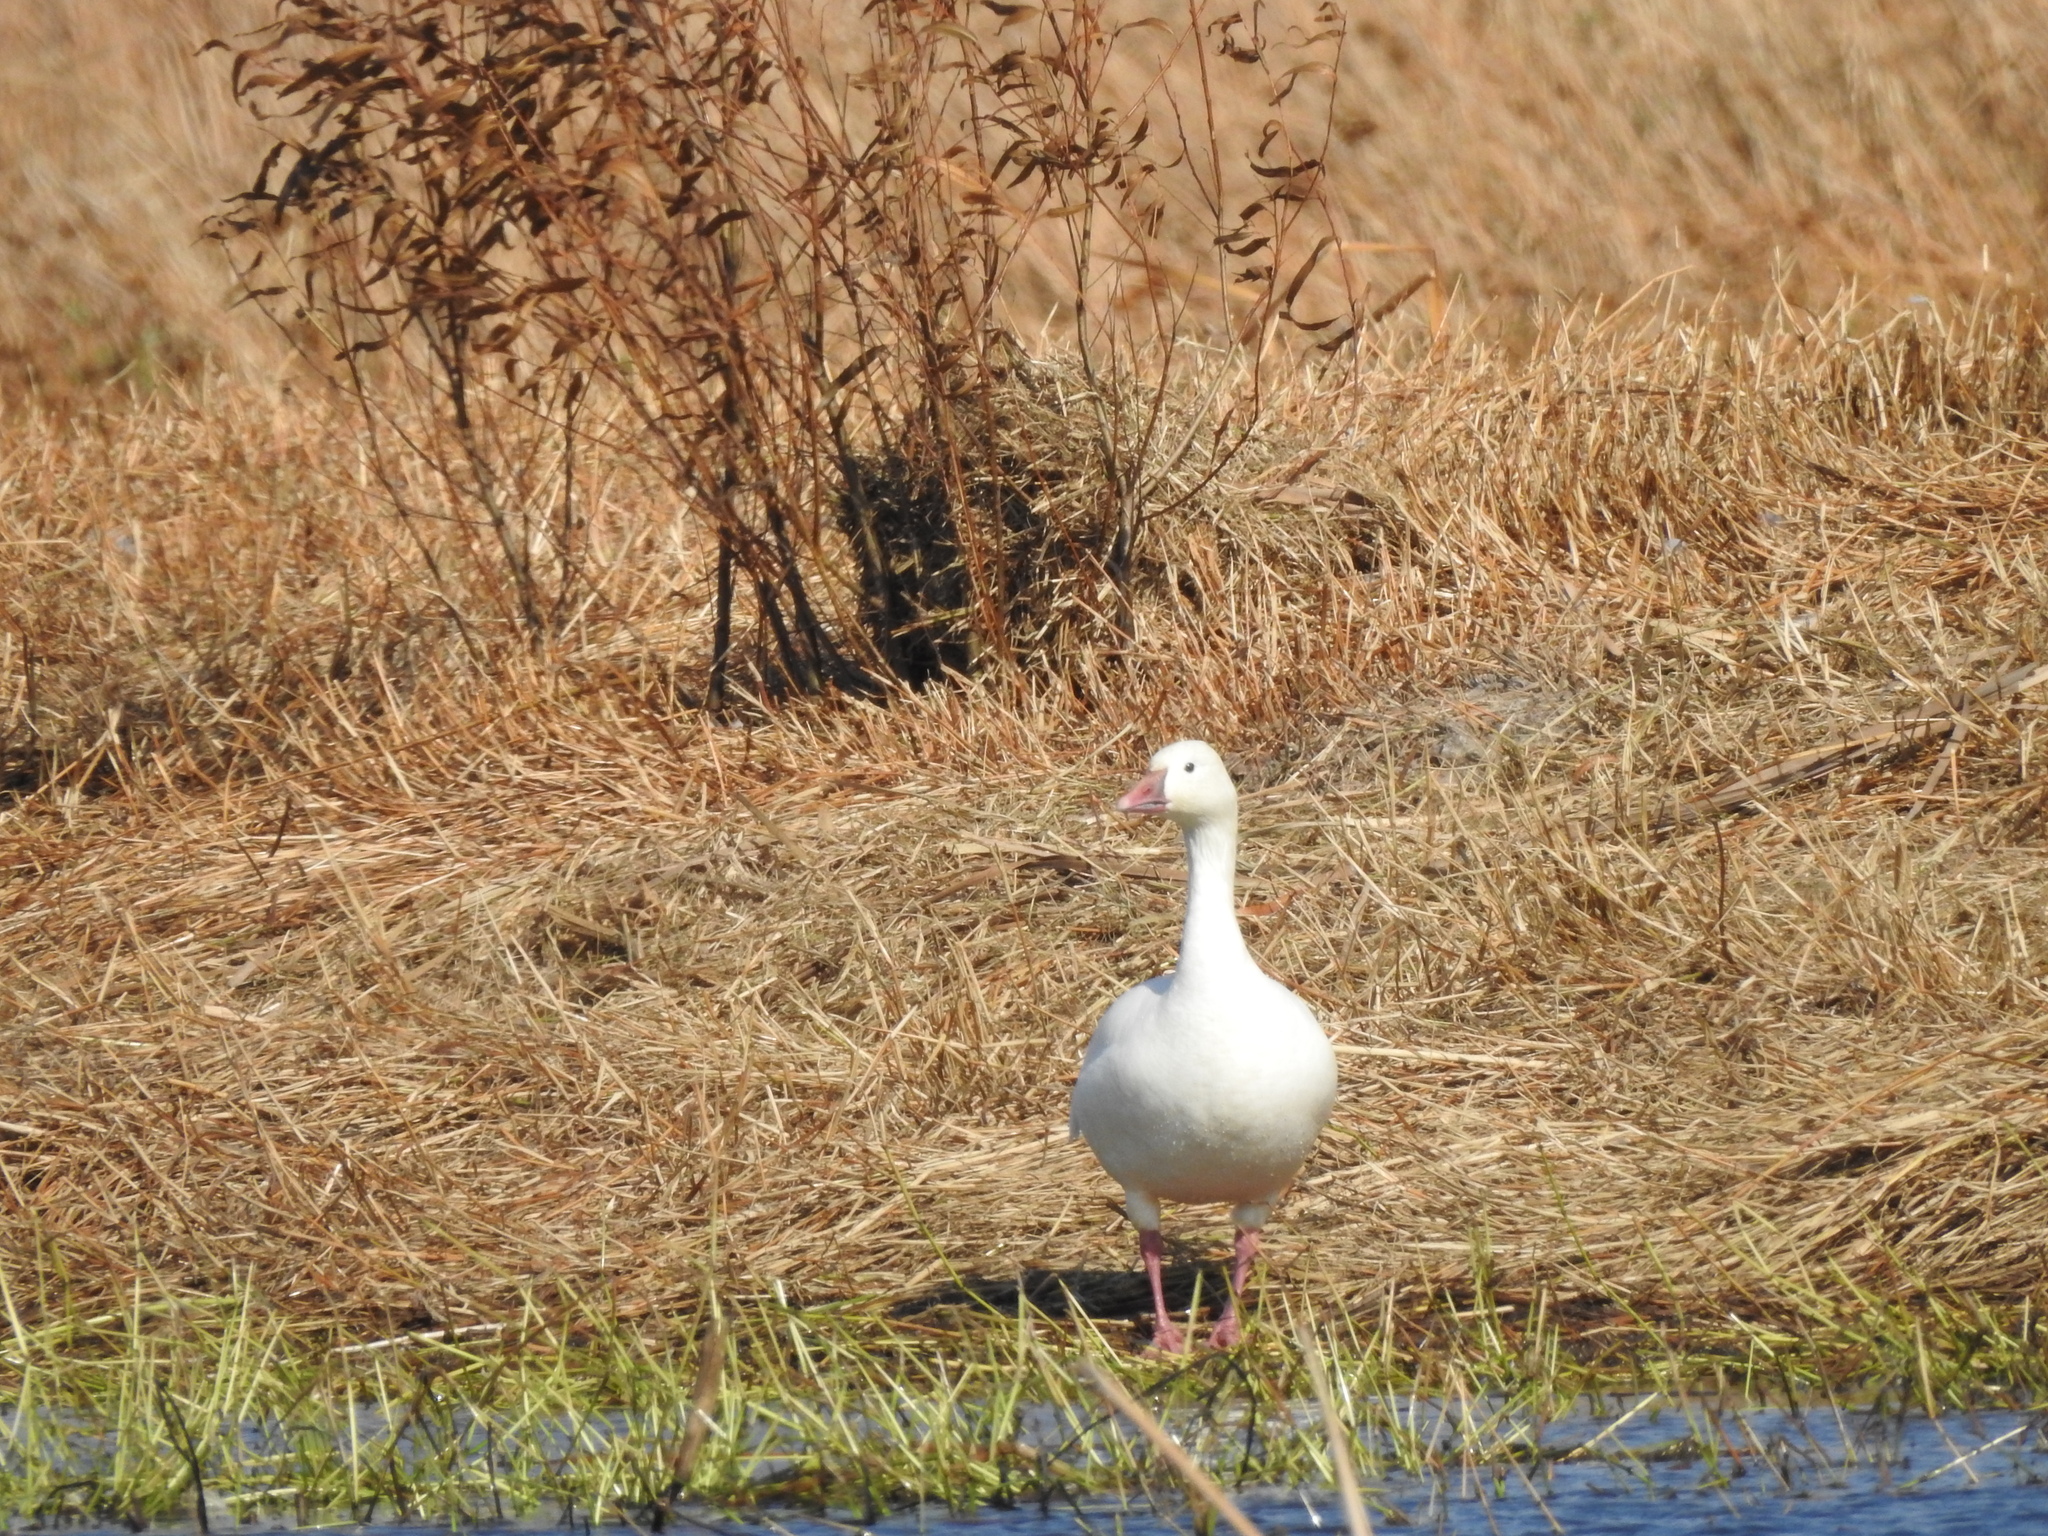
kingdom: Animalia
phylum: Chordata
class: Aves
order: Anseriformes
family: Anatidae
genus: Anser
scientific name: Anser rossii
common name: Ross's goose
